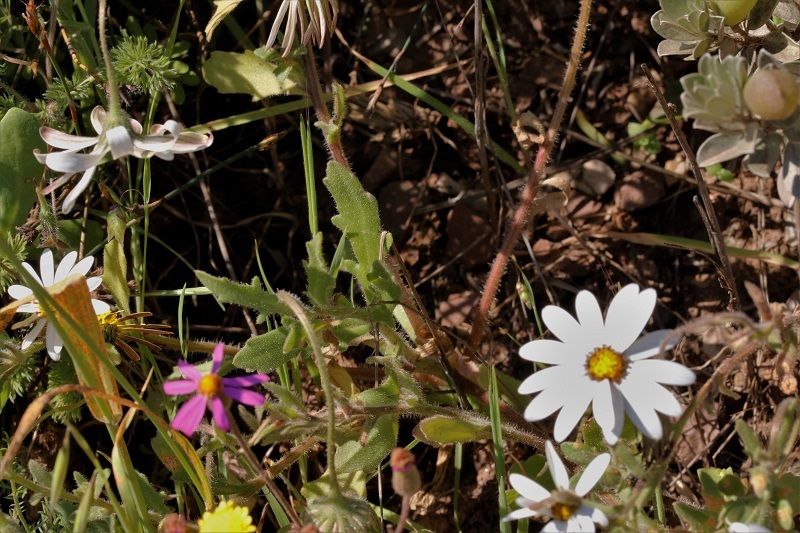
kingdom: Plantae
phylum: Tracheophyta
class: Magnoliopsida
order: Asterales
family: Asteraceae
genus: Dimorphotheca
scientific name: Dimorphotheca pluvialis
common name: Weather prophet
